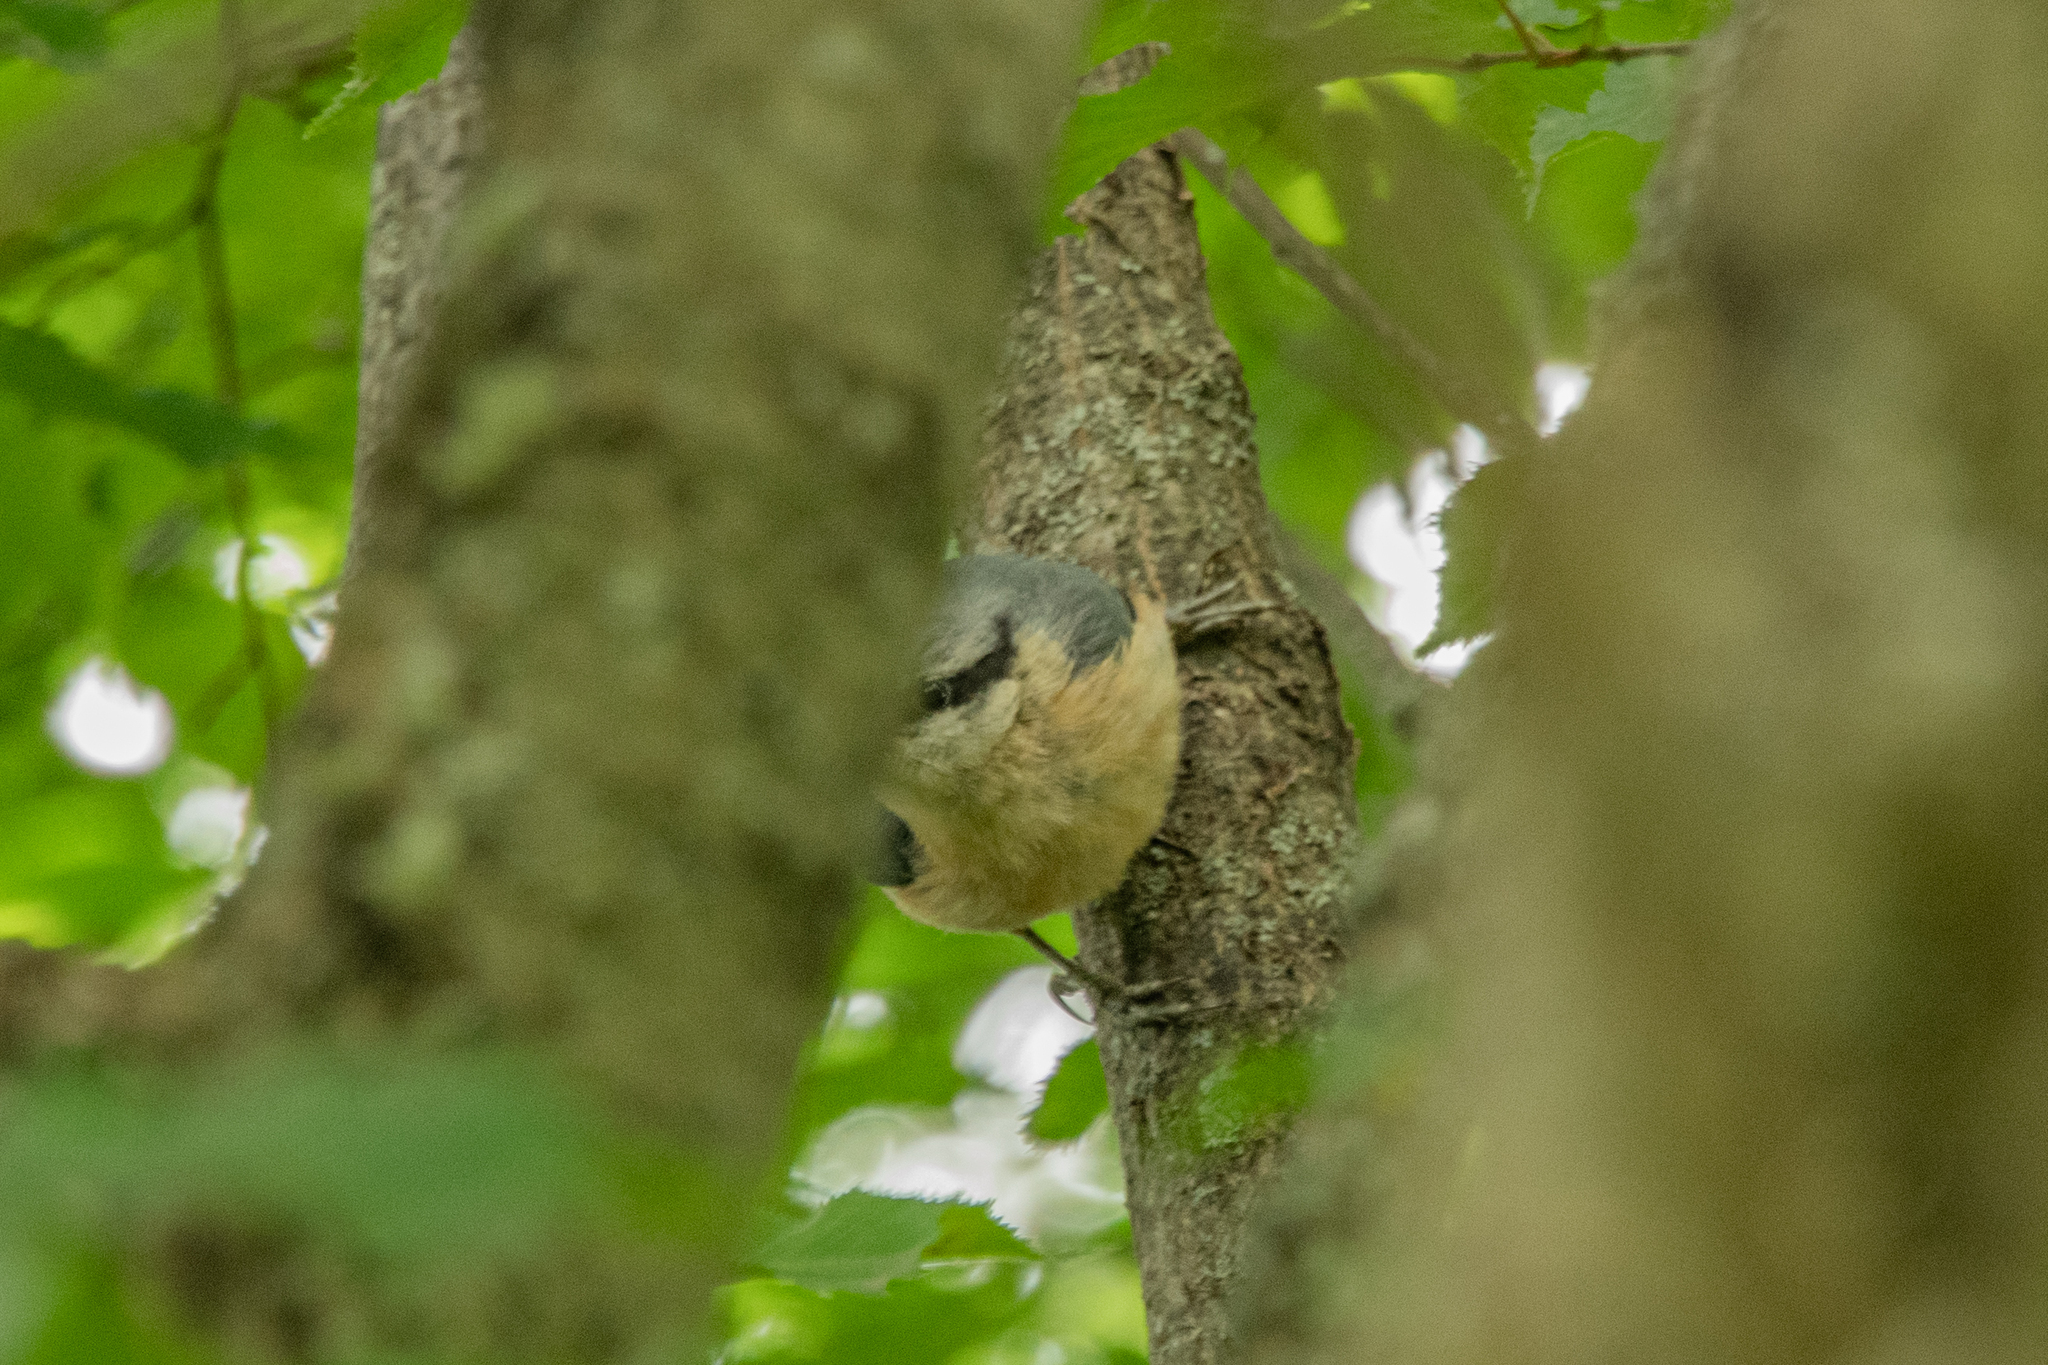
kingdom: Animalia
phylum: Chordata
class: Aves
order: Passeriformes
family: Sittidae
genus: Sitta
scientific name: Sitta europaea
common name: Eurasian nuthatch
